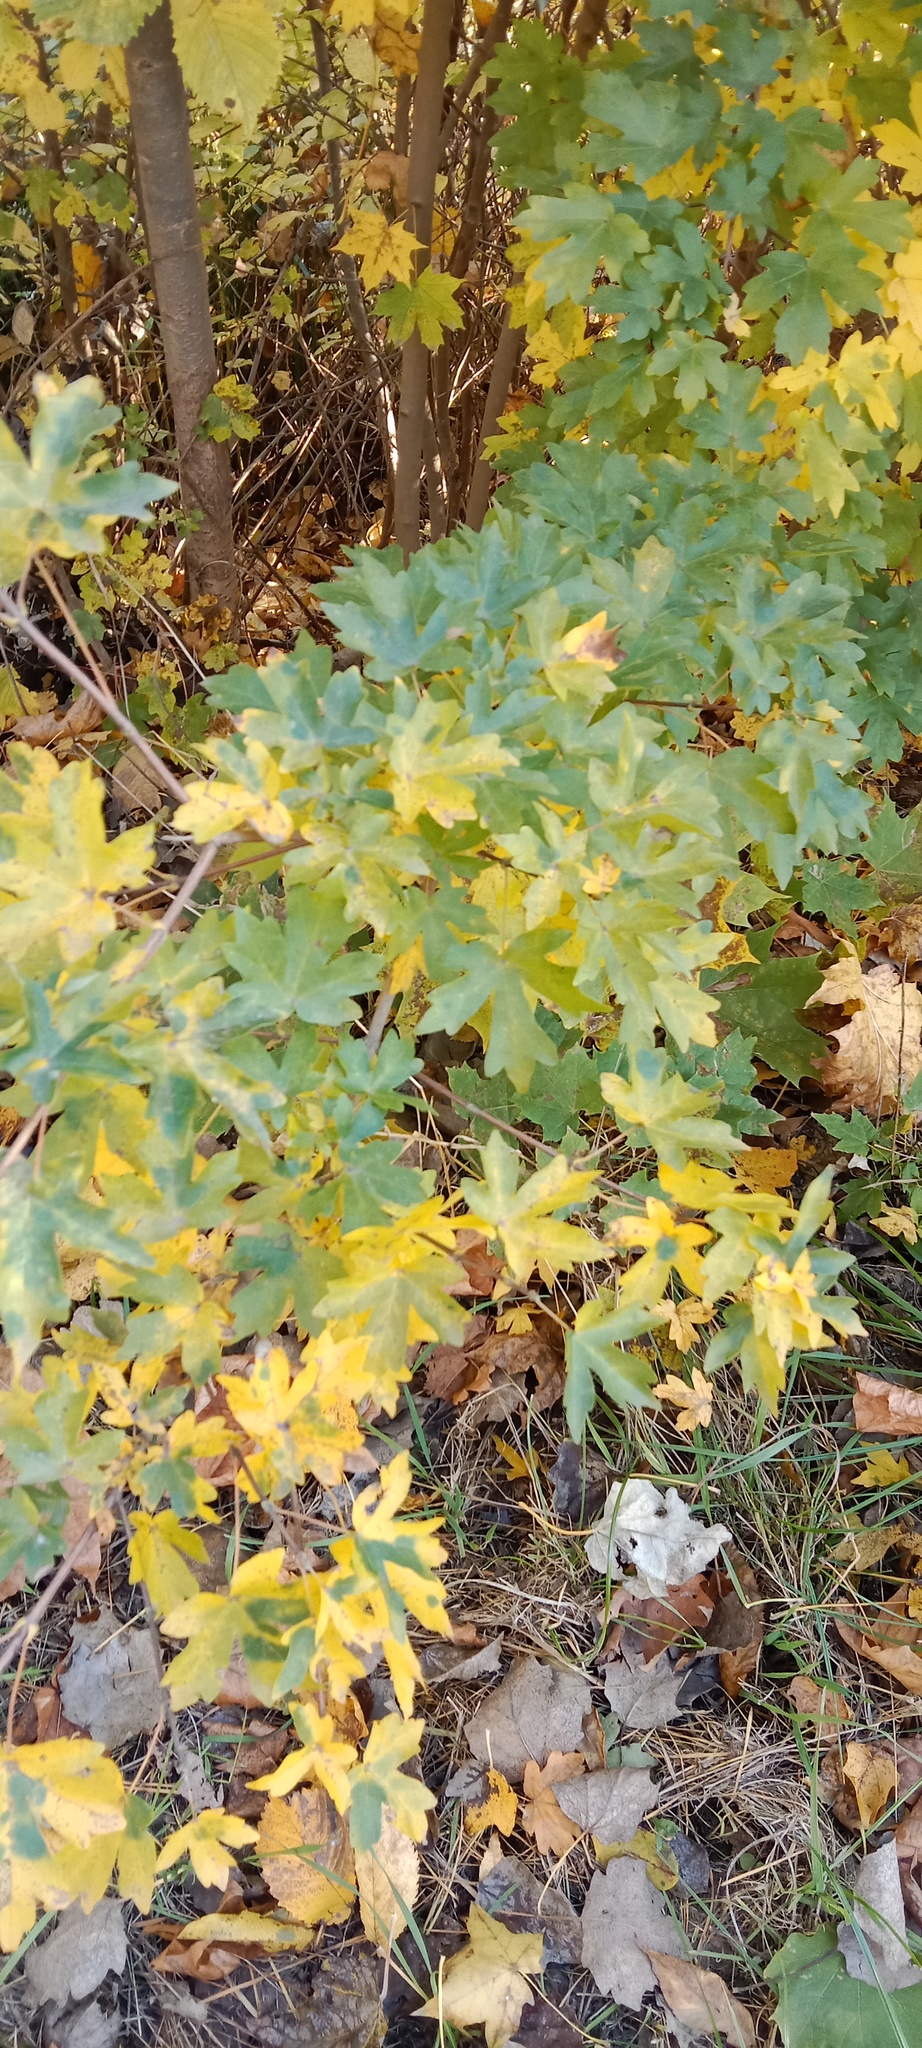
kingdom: Plantae
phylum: Tracheophyta
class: Magnoliopsida
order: Sapindales
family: Sapindaceae
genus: Acer
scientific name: Acer campestre
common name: Field maple
